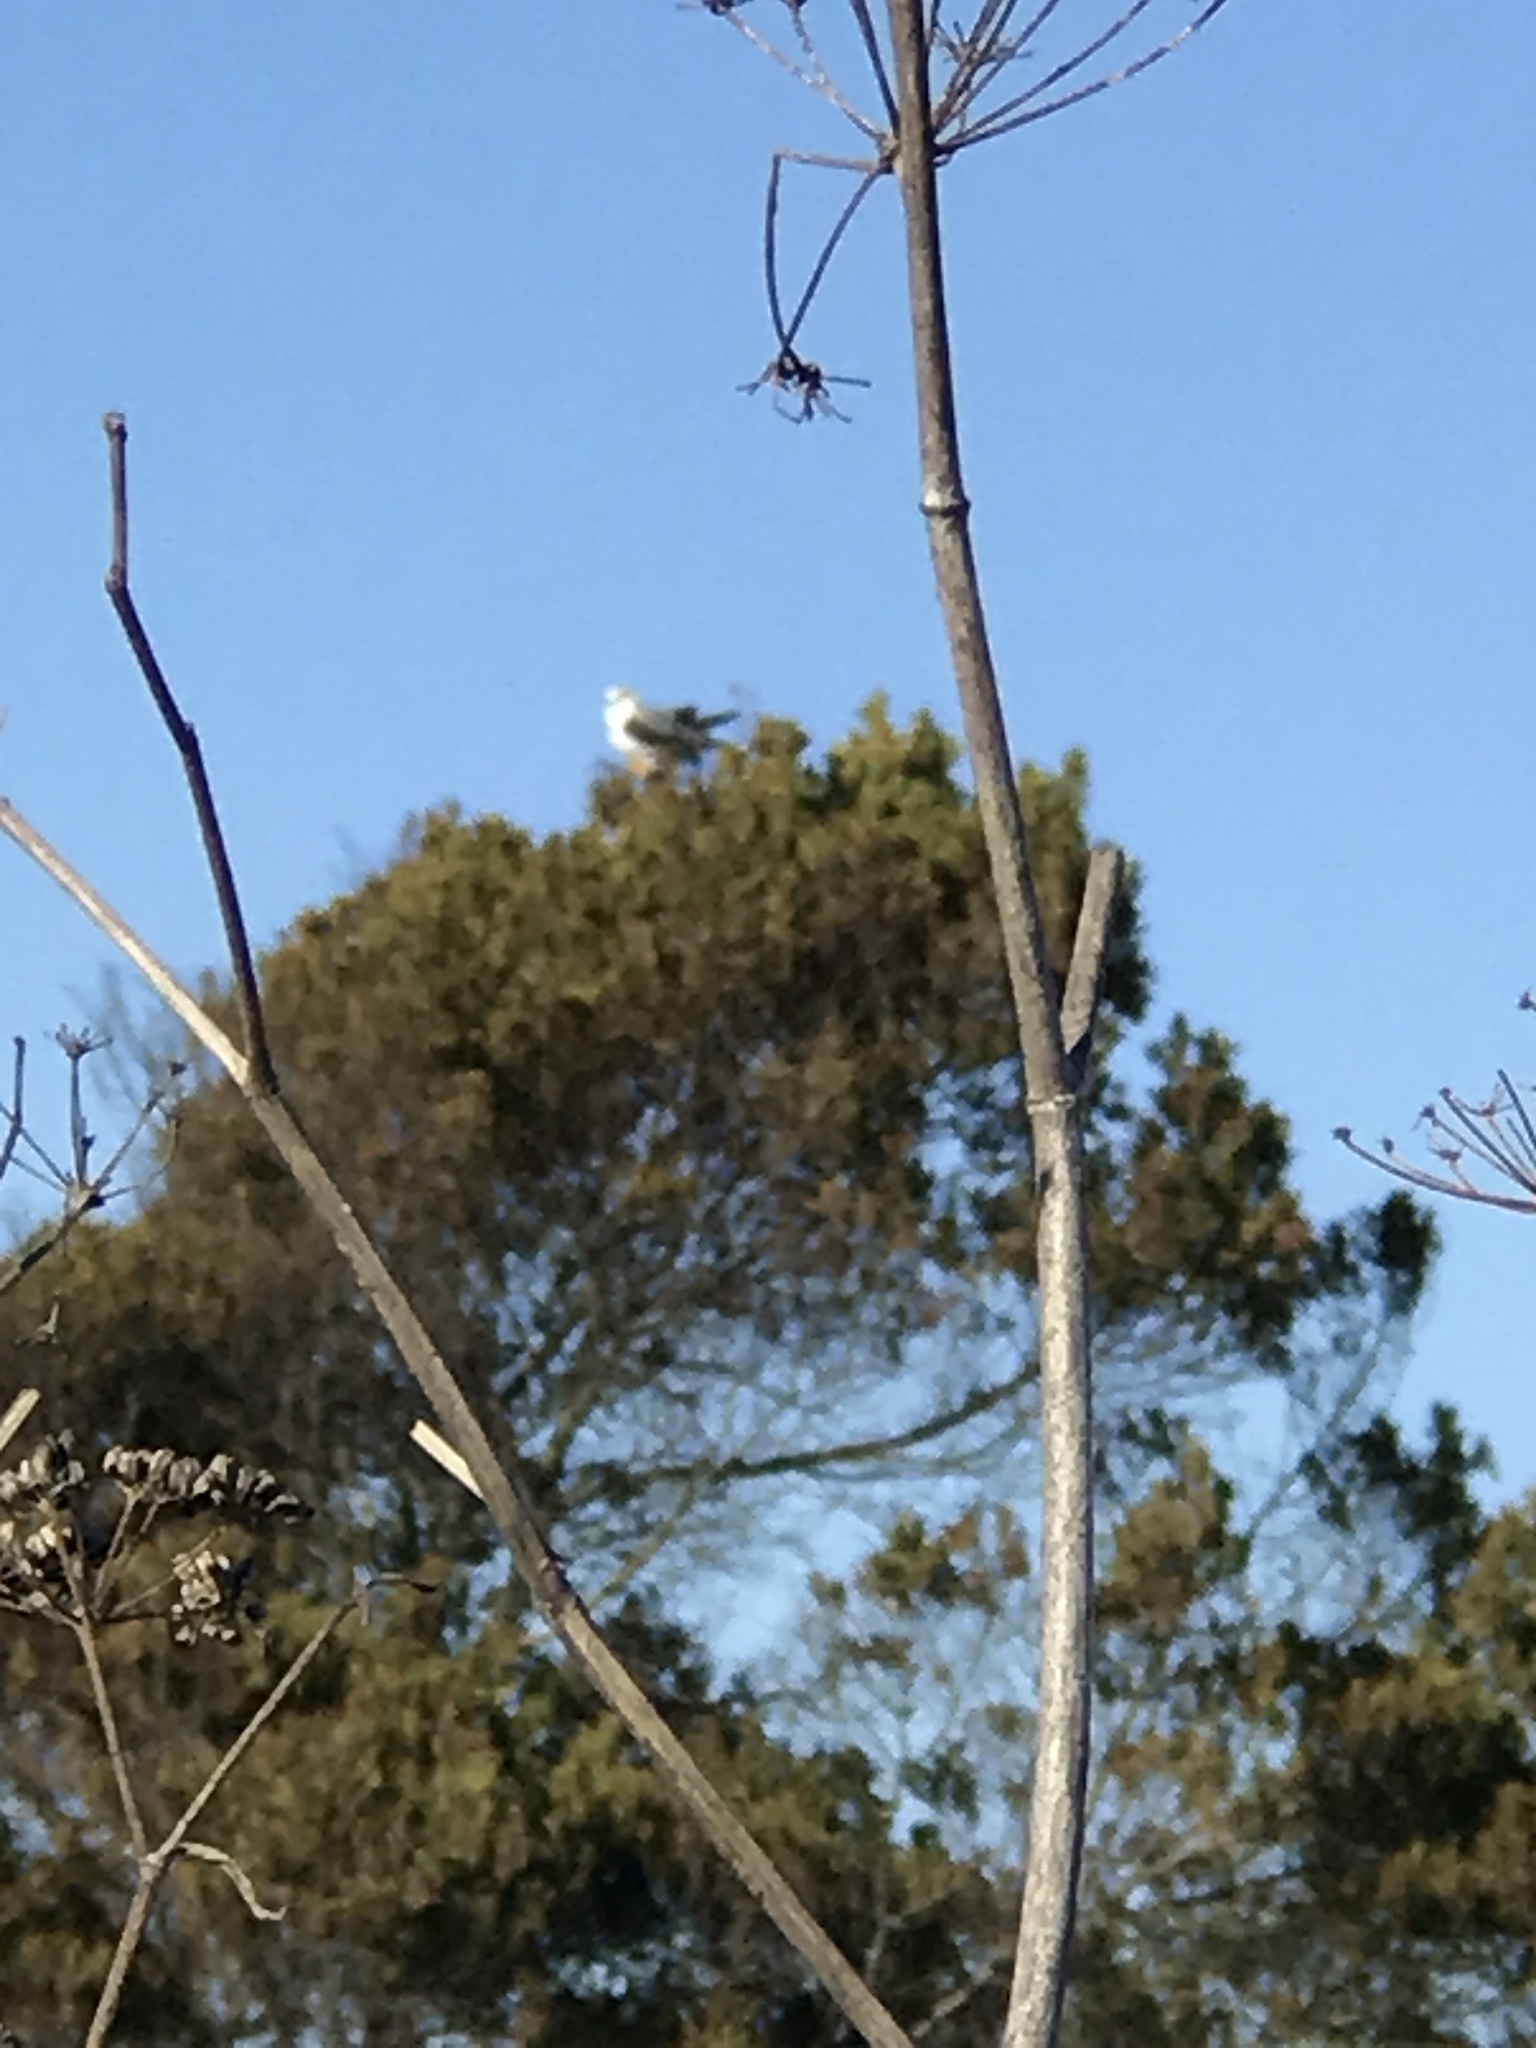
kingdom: Animalia
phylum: Chordata
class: Aves
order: Accipitriformes
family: Accipitridae
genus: Elanus
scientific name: Elanus leucurus
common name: White-tailed kite
